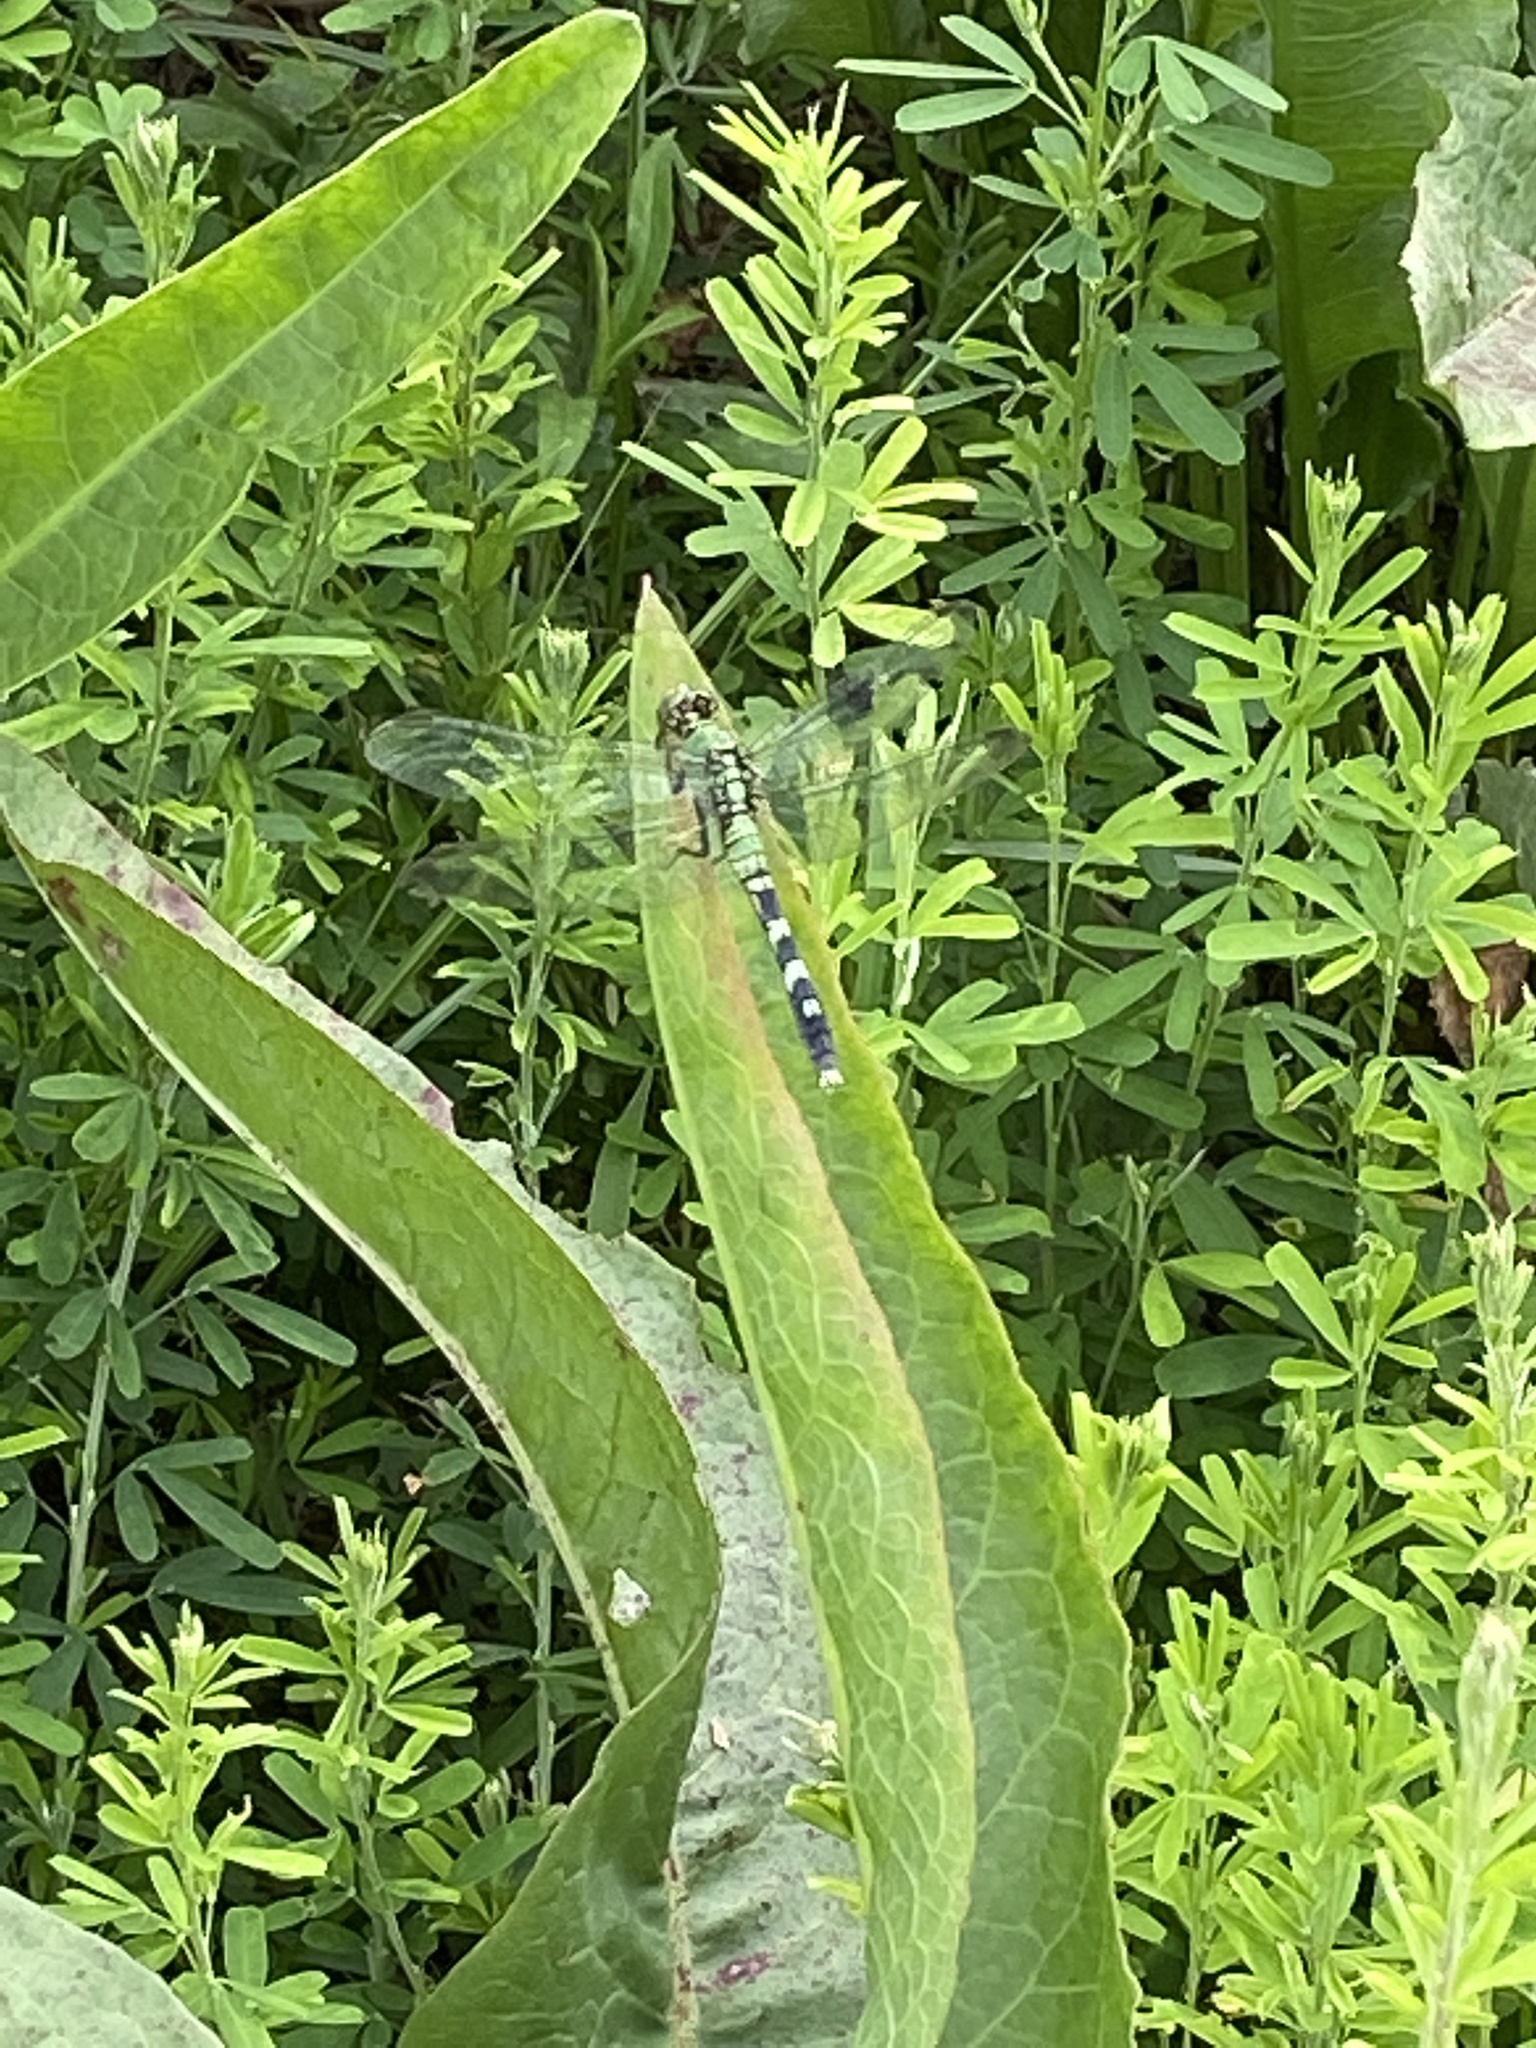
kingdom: Animalia
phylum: Arthropoda
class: Insecta
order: Odonata
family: Libellulidae
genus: Erythemis
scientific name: Erythemis simplicicollis
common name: Eastern pondhawk
